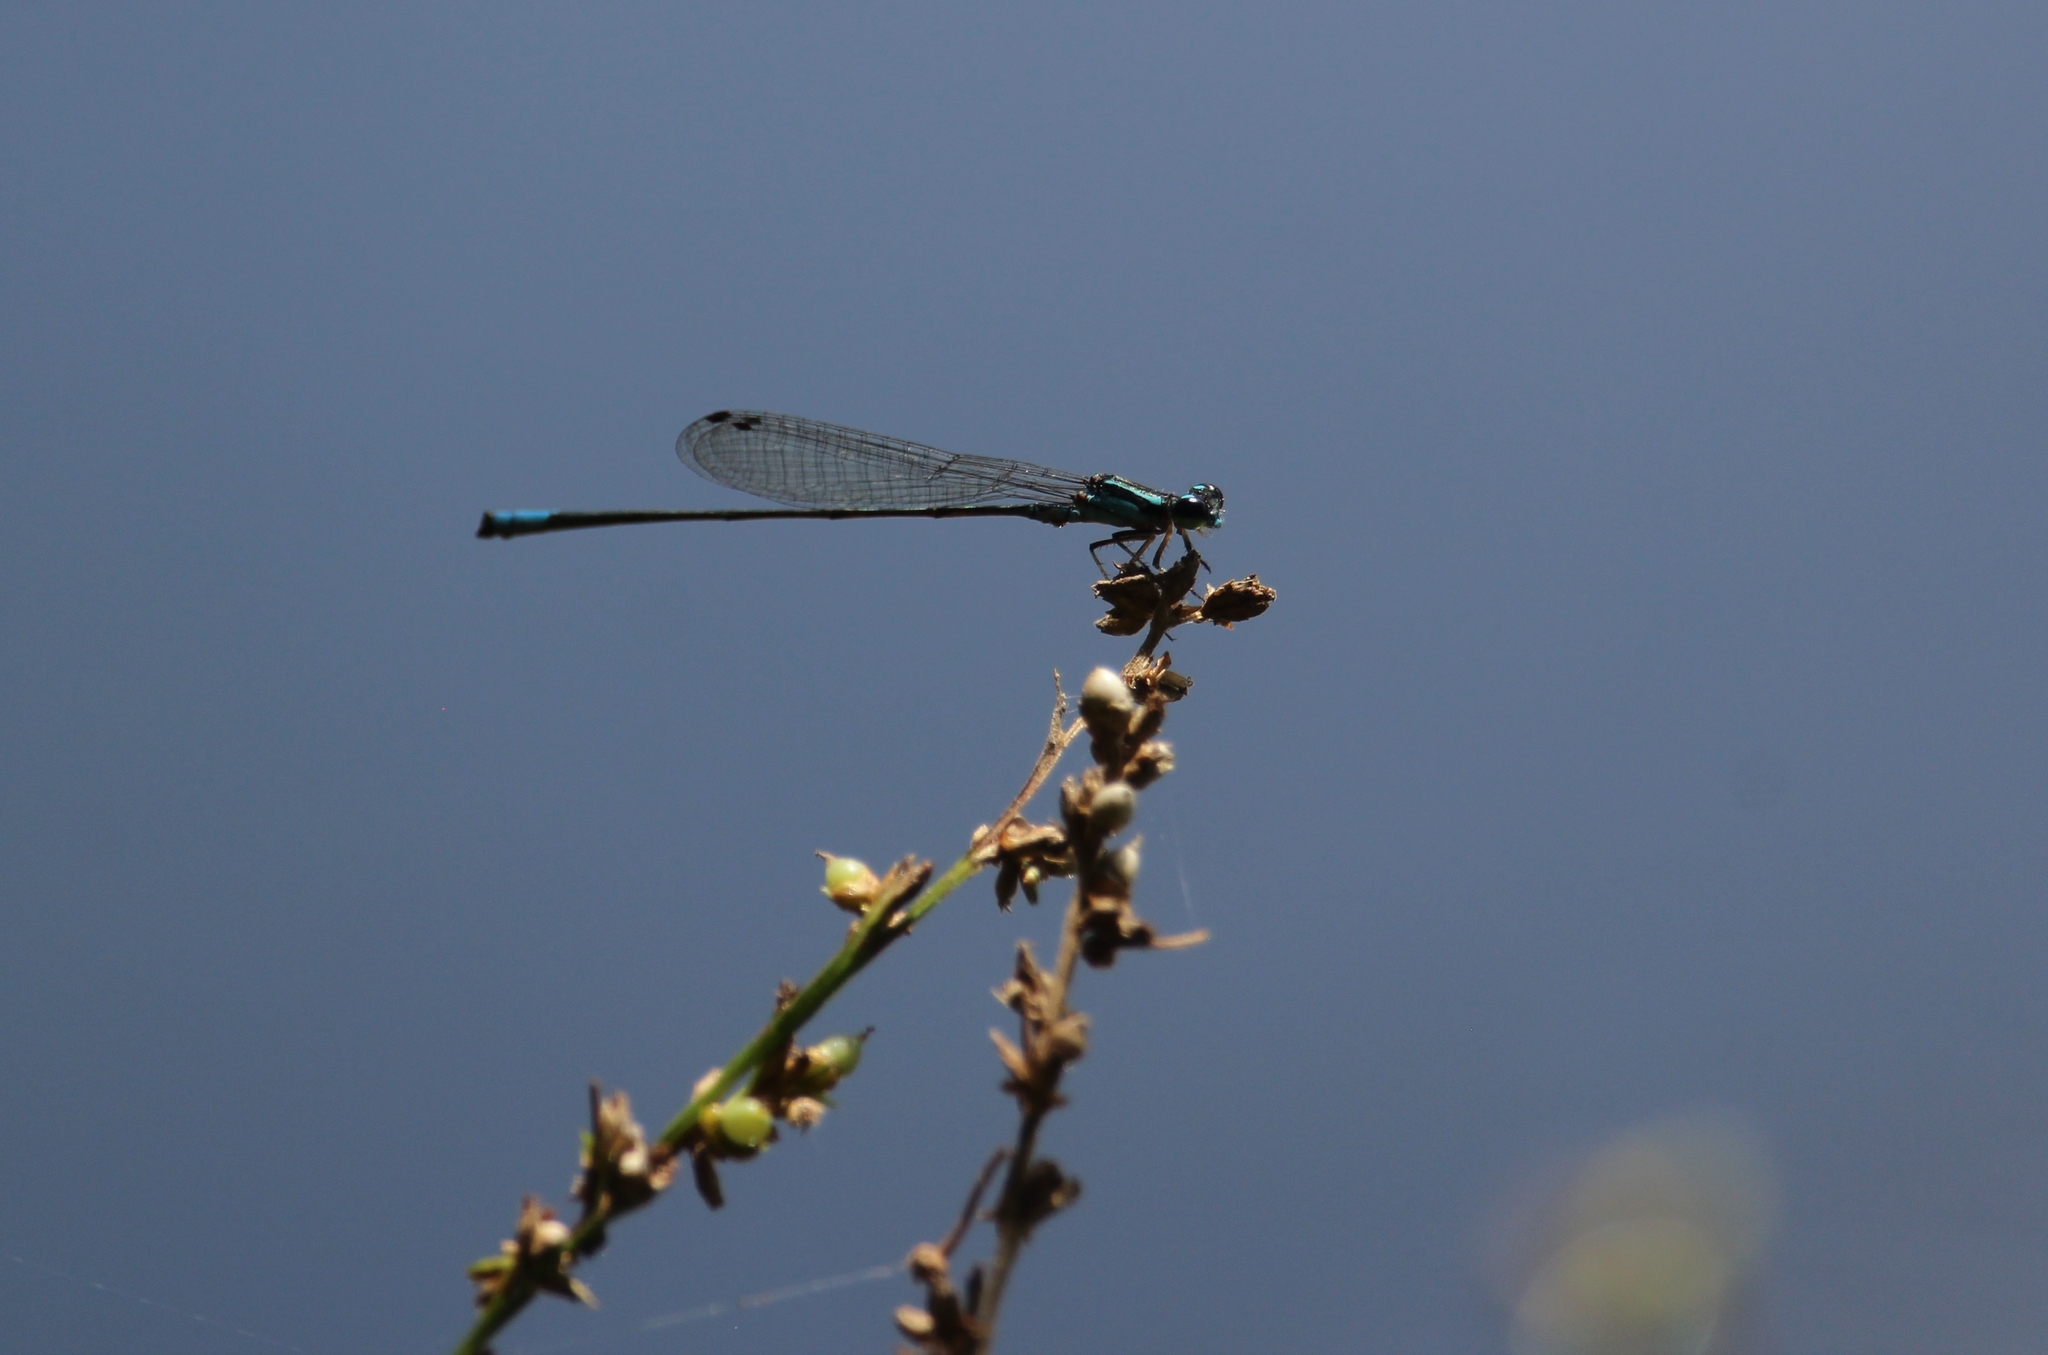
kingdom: Animalia
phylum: Arthropoda
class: Insecta
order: Odonata
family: Coenagrionidae
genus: Acanthagrion
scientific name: Acanthagrion quadratum
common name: Mexican wedgetail
